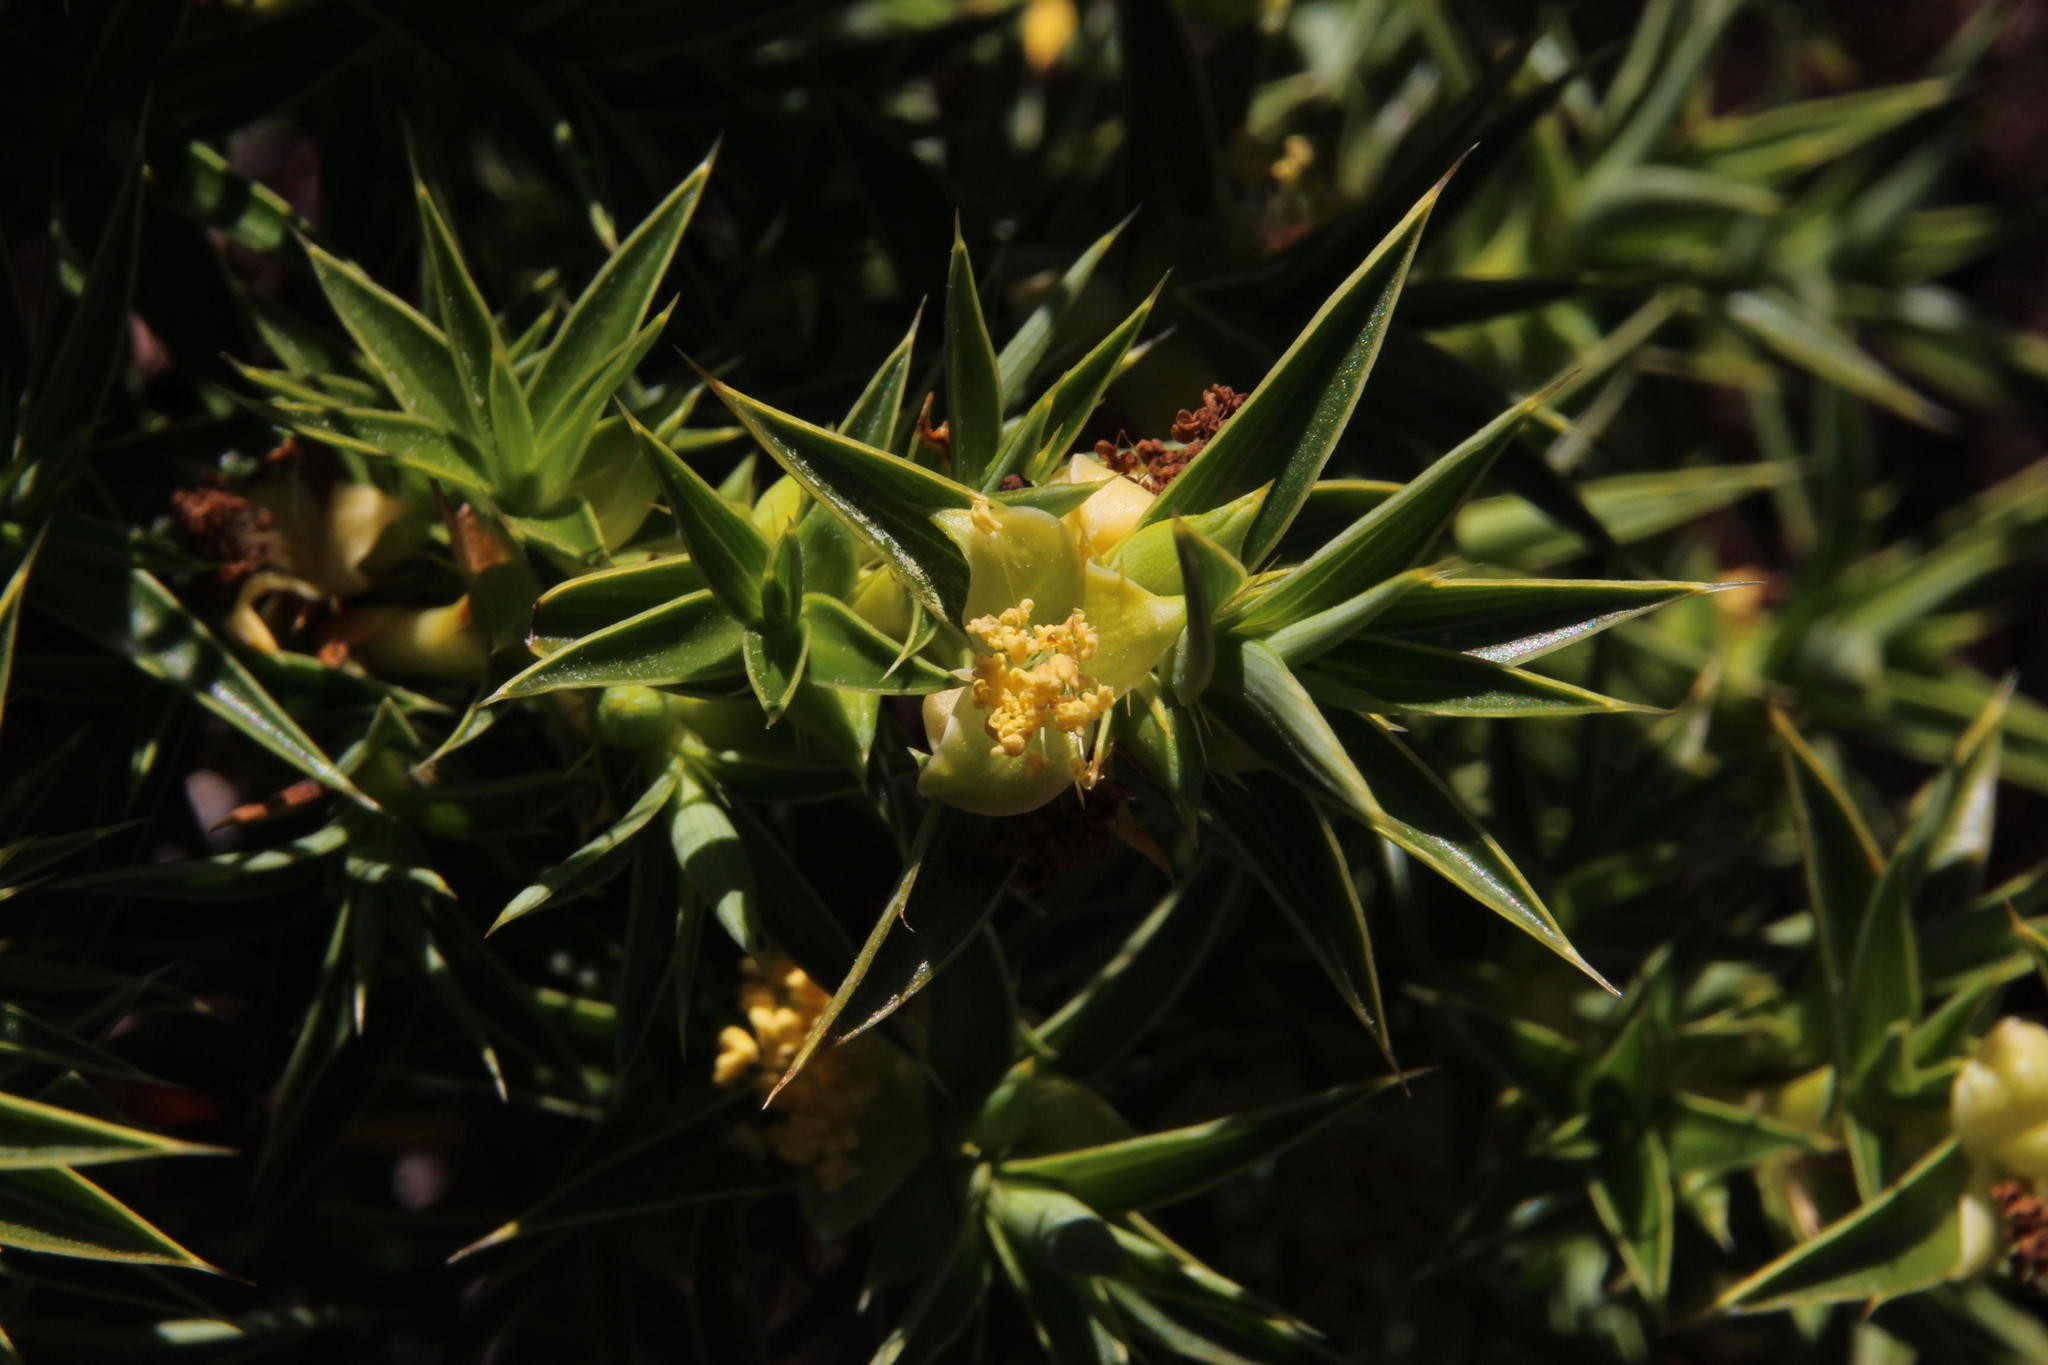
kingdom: Plantae
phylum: Tracheophyta
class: Magnoliopsida
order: Rosales
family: Rosaceae
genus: Cliffortia
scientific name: Cliffortia dregeana
